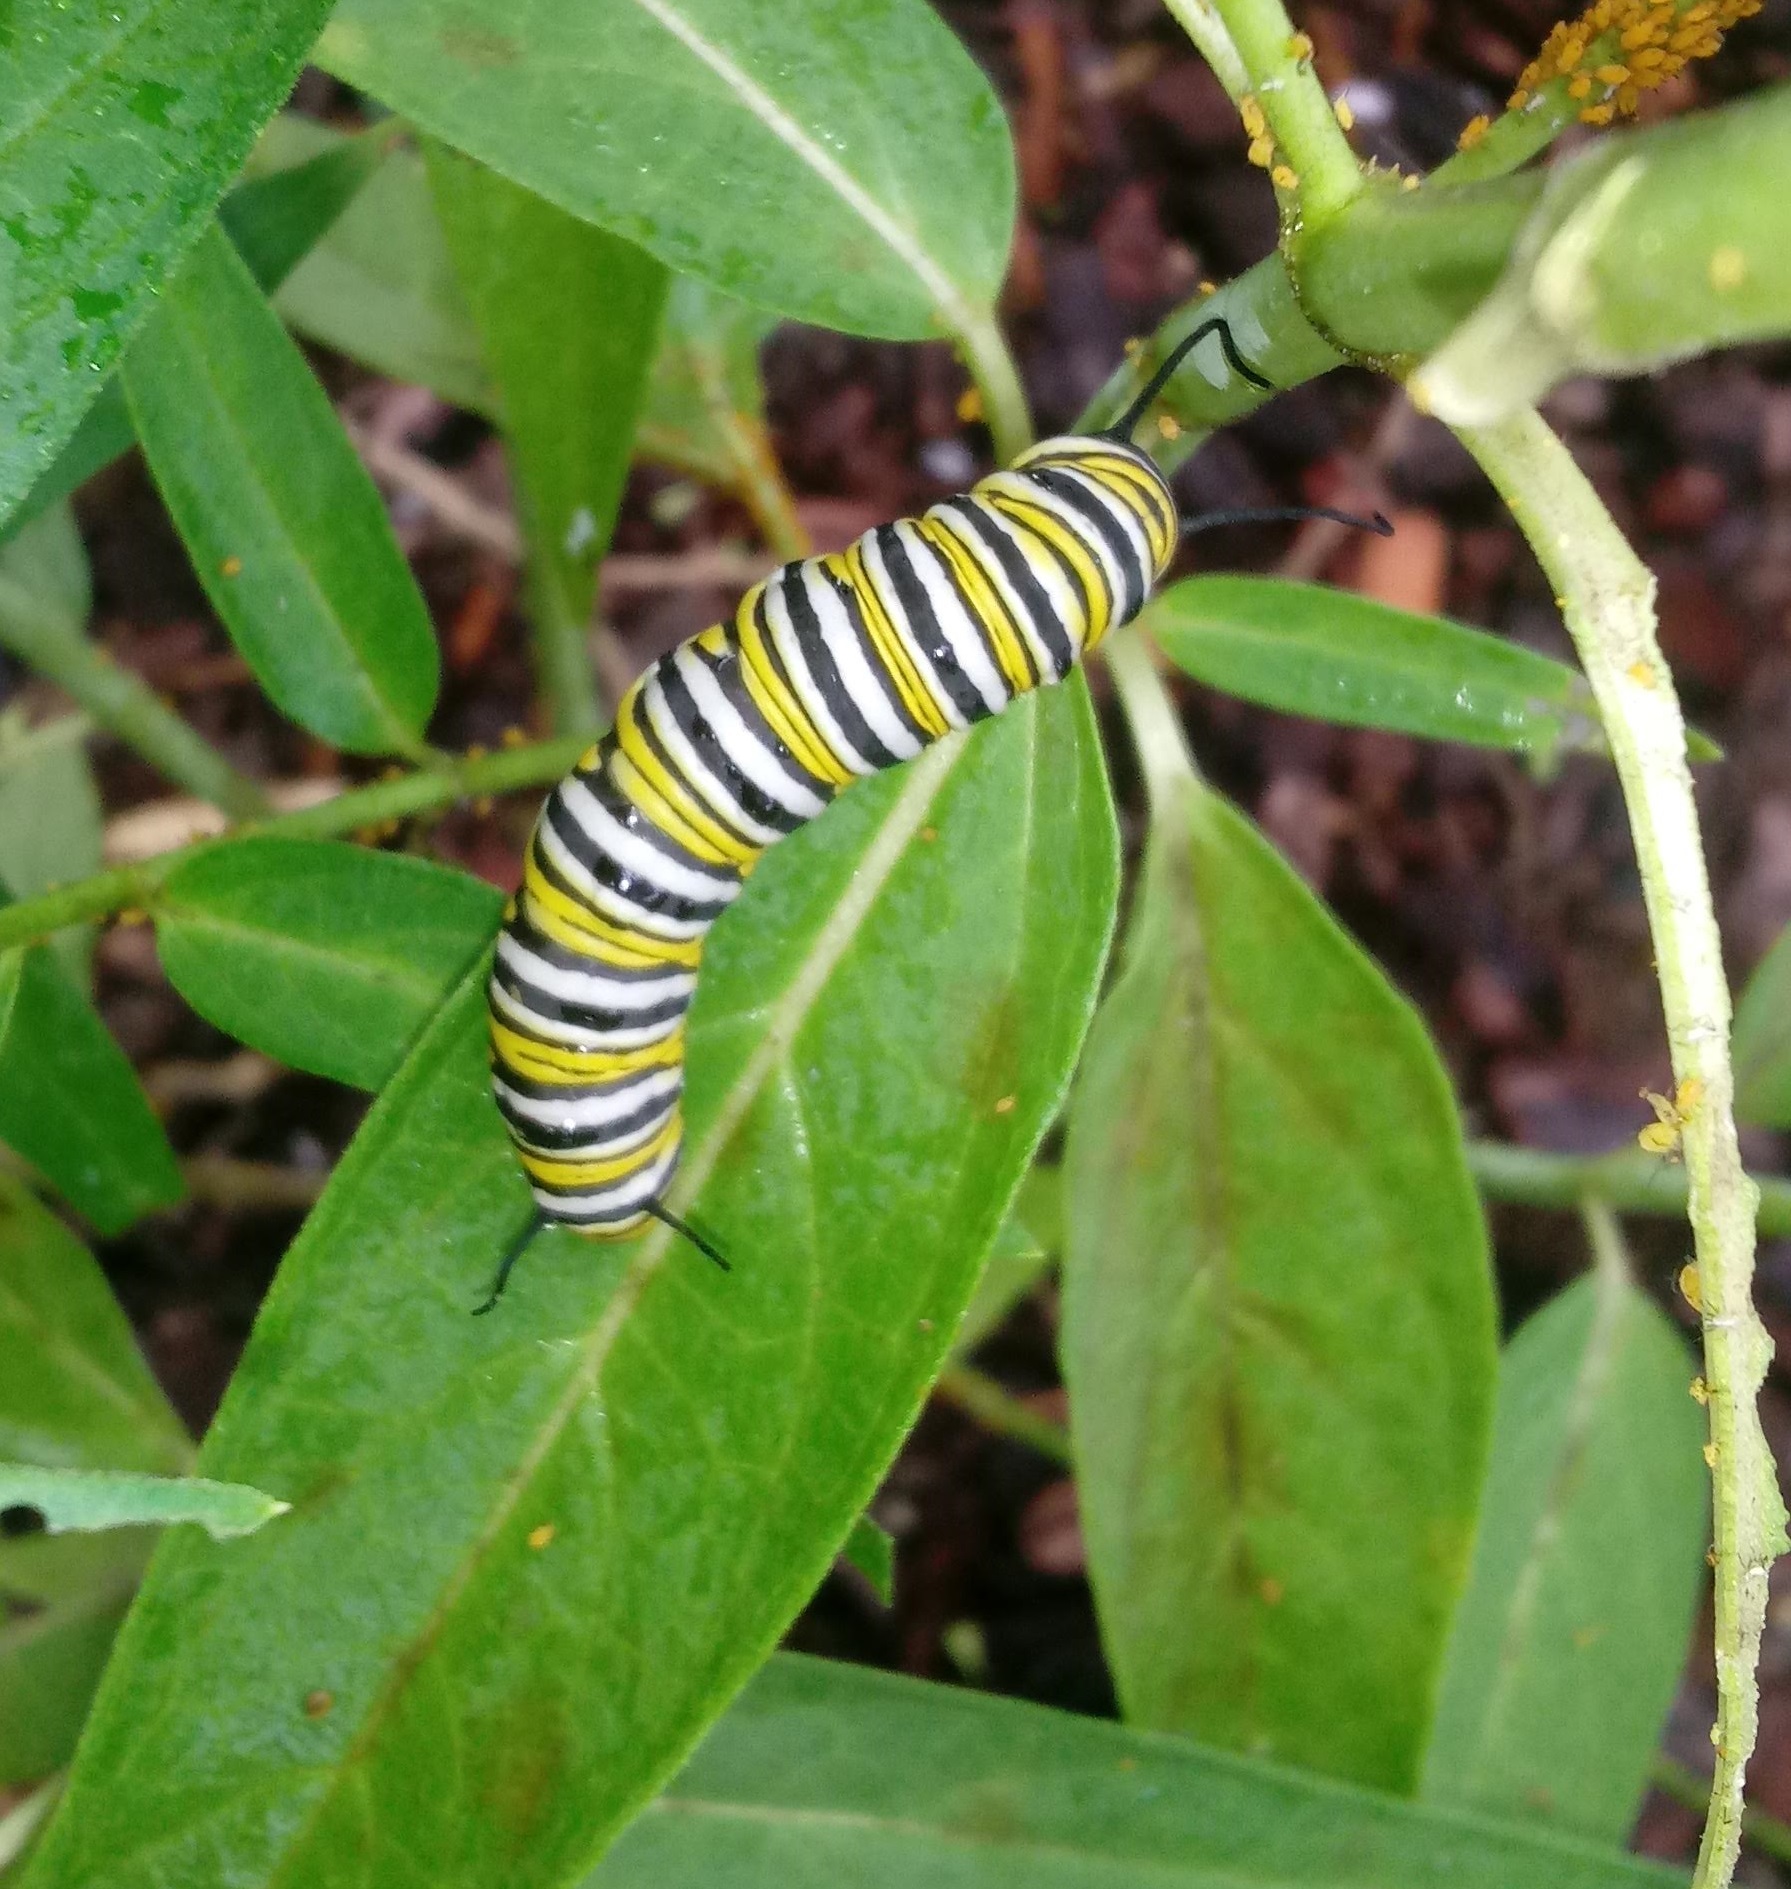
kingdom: Animalia
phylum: Arthropoda
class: Insecta
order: Lepidoptera
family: Nymphalidae
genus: Danaus
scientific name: Danaus plexippus
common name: Monarch
